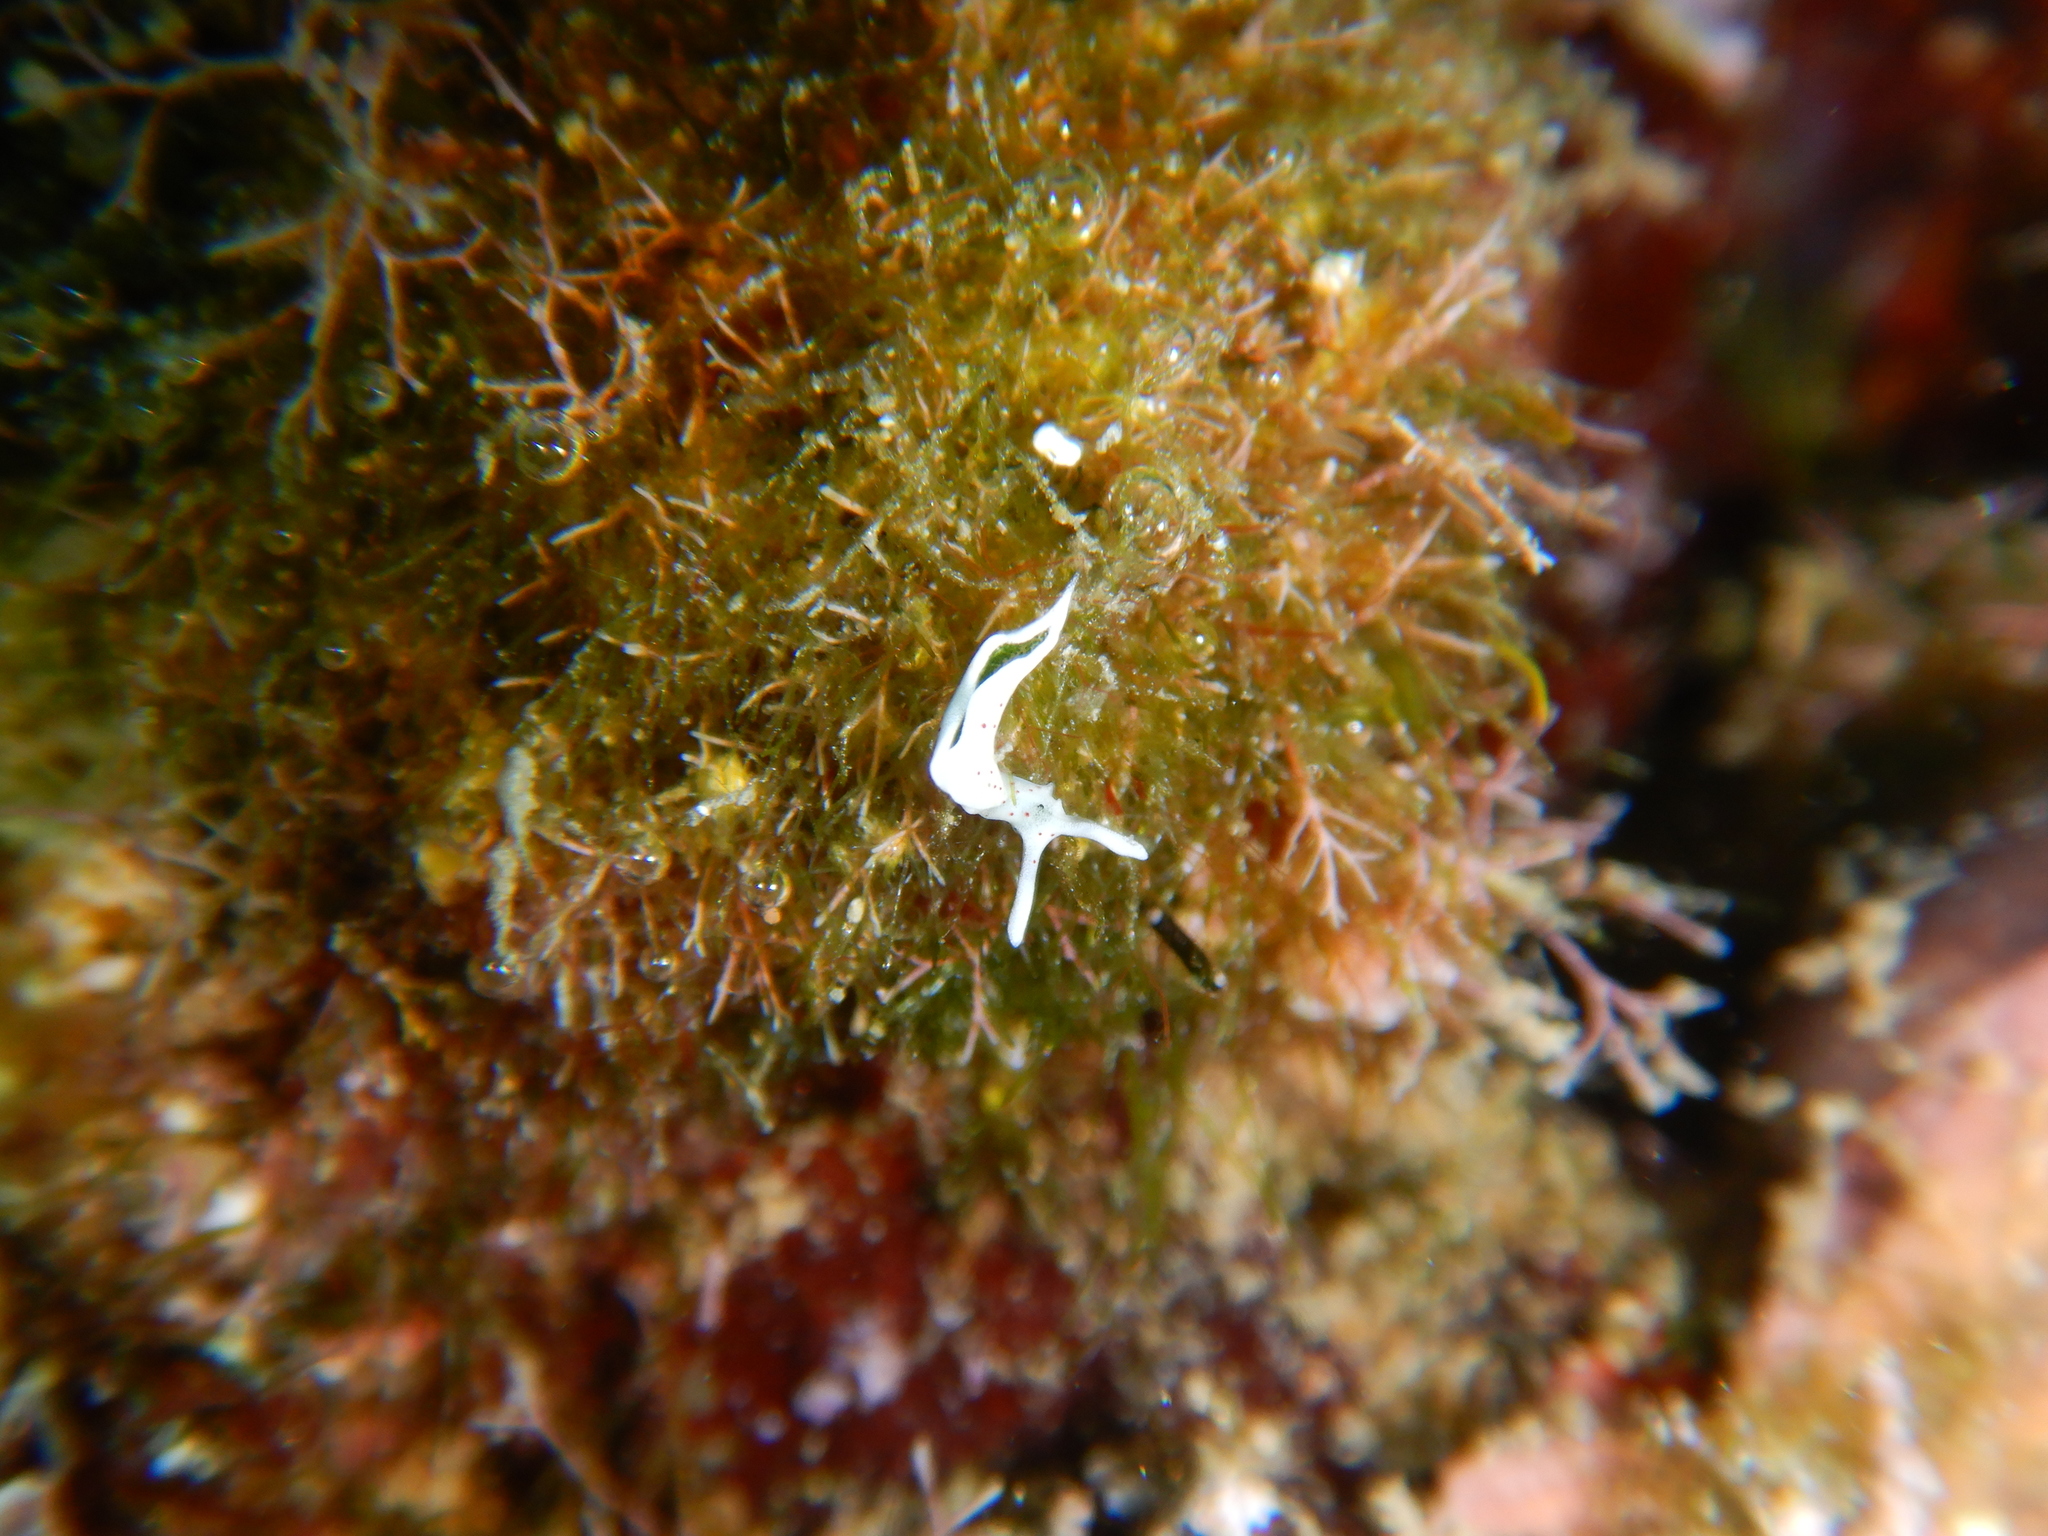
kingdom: Animalia
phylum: Mollusca
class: Gastropoda
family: Plakobranchidae
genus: Elysia
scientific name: Elysia timida
